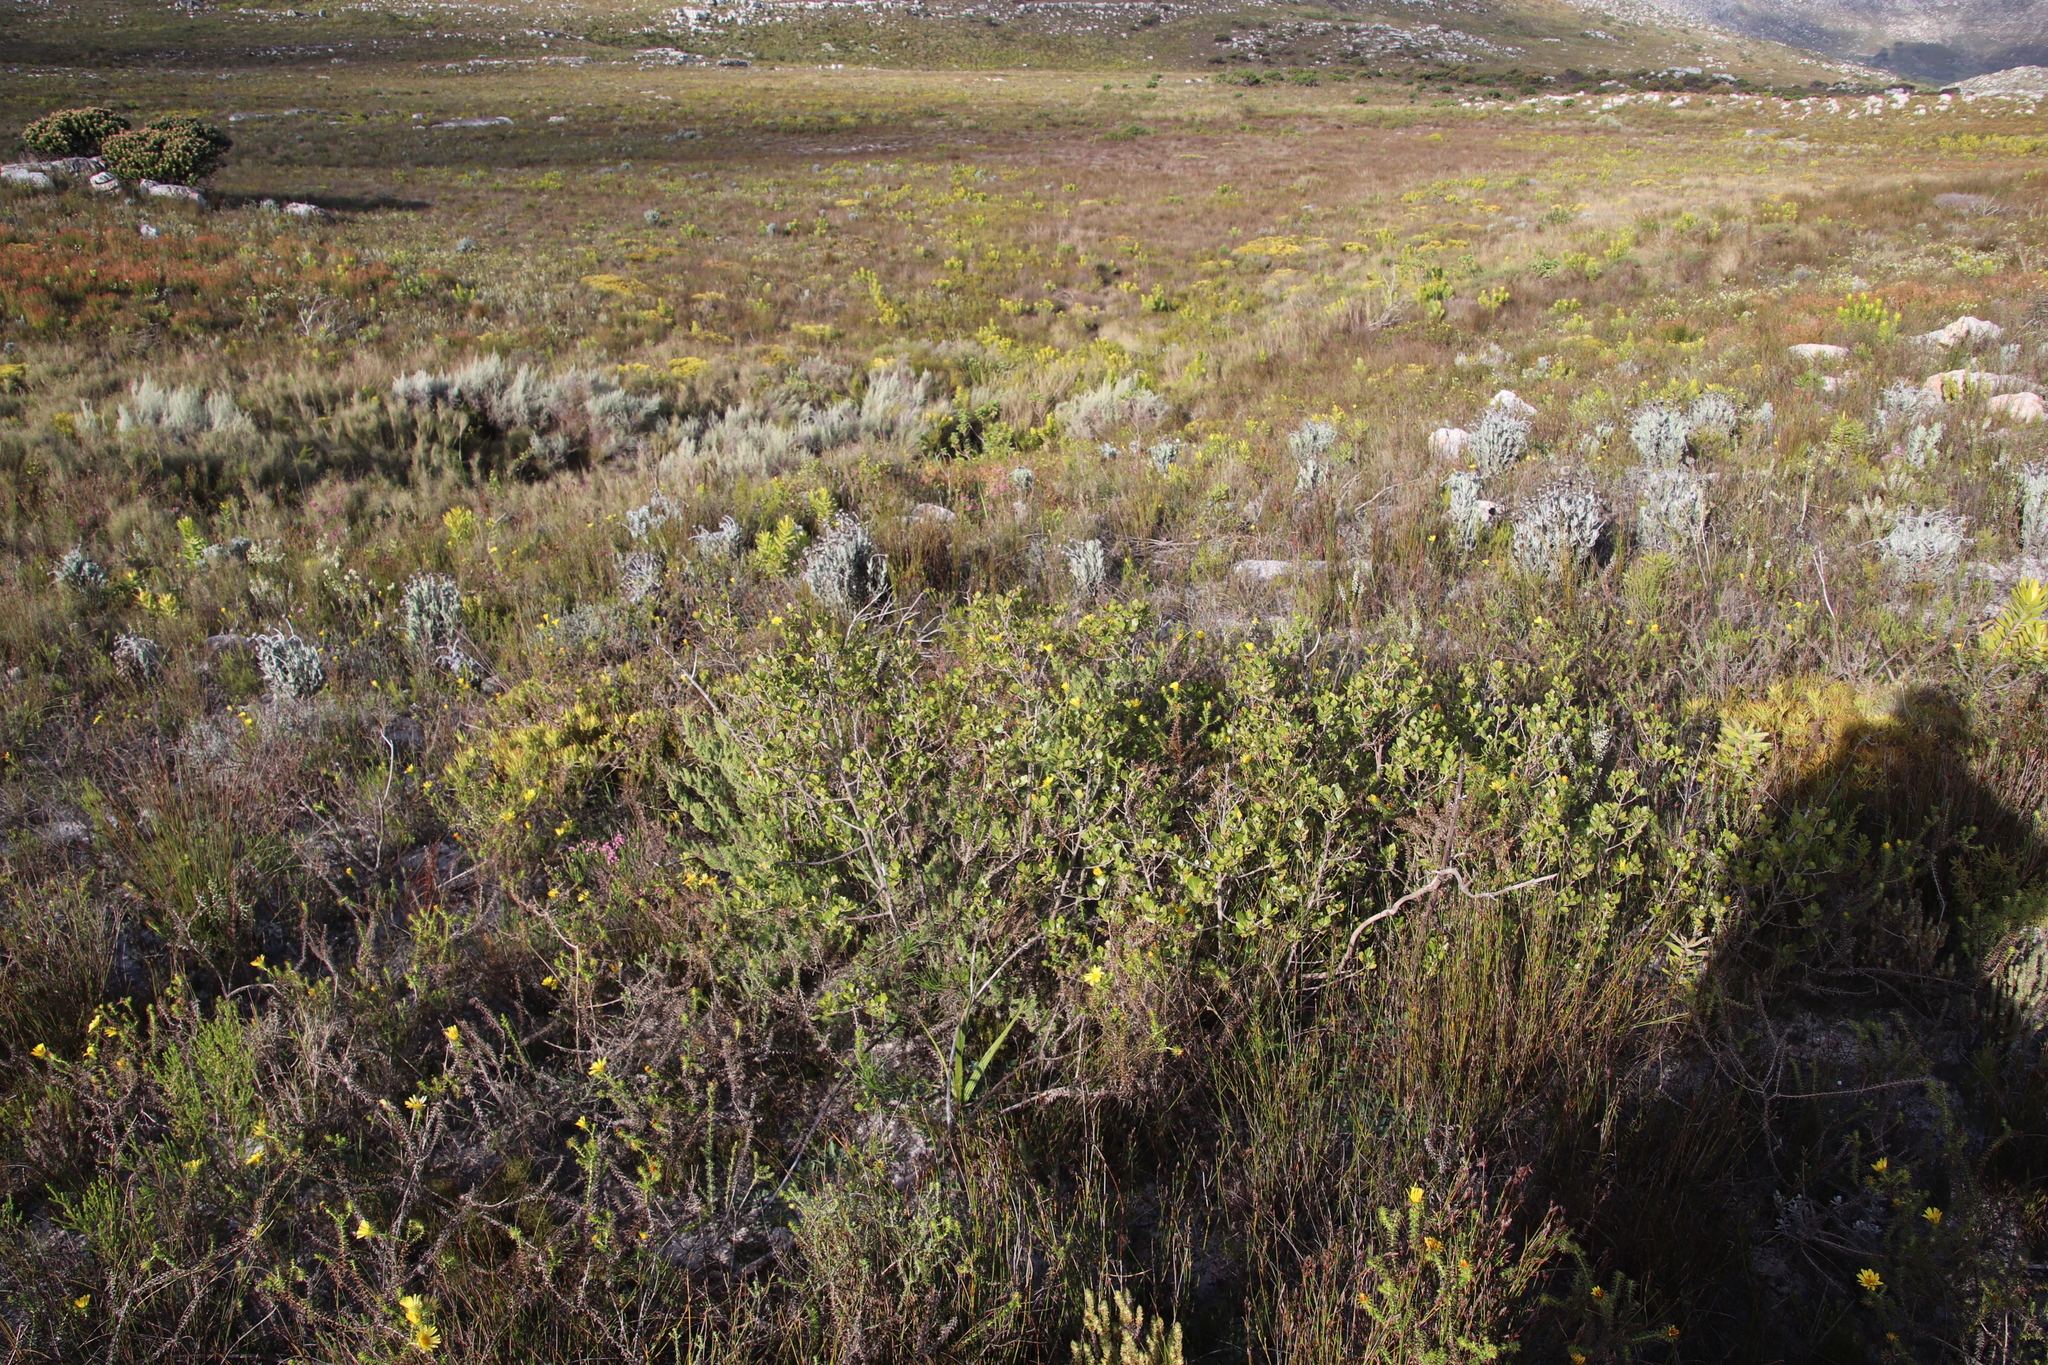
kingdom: Plantae
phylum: Tracheophyta
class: Liliopsida
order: Asparagales
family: Asparagaceae
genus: Asparagus
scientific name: Asparagus rubicundus
